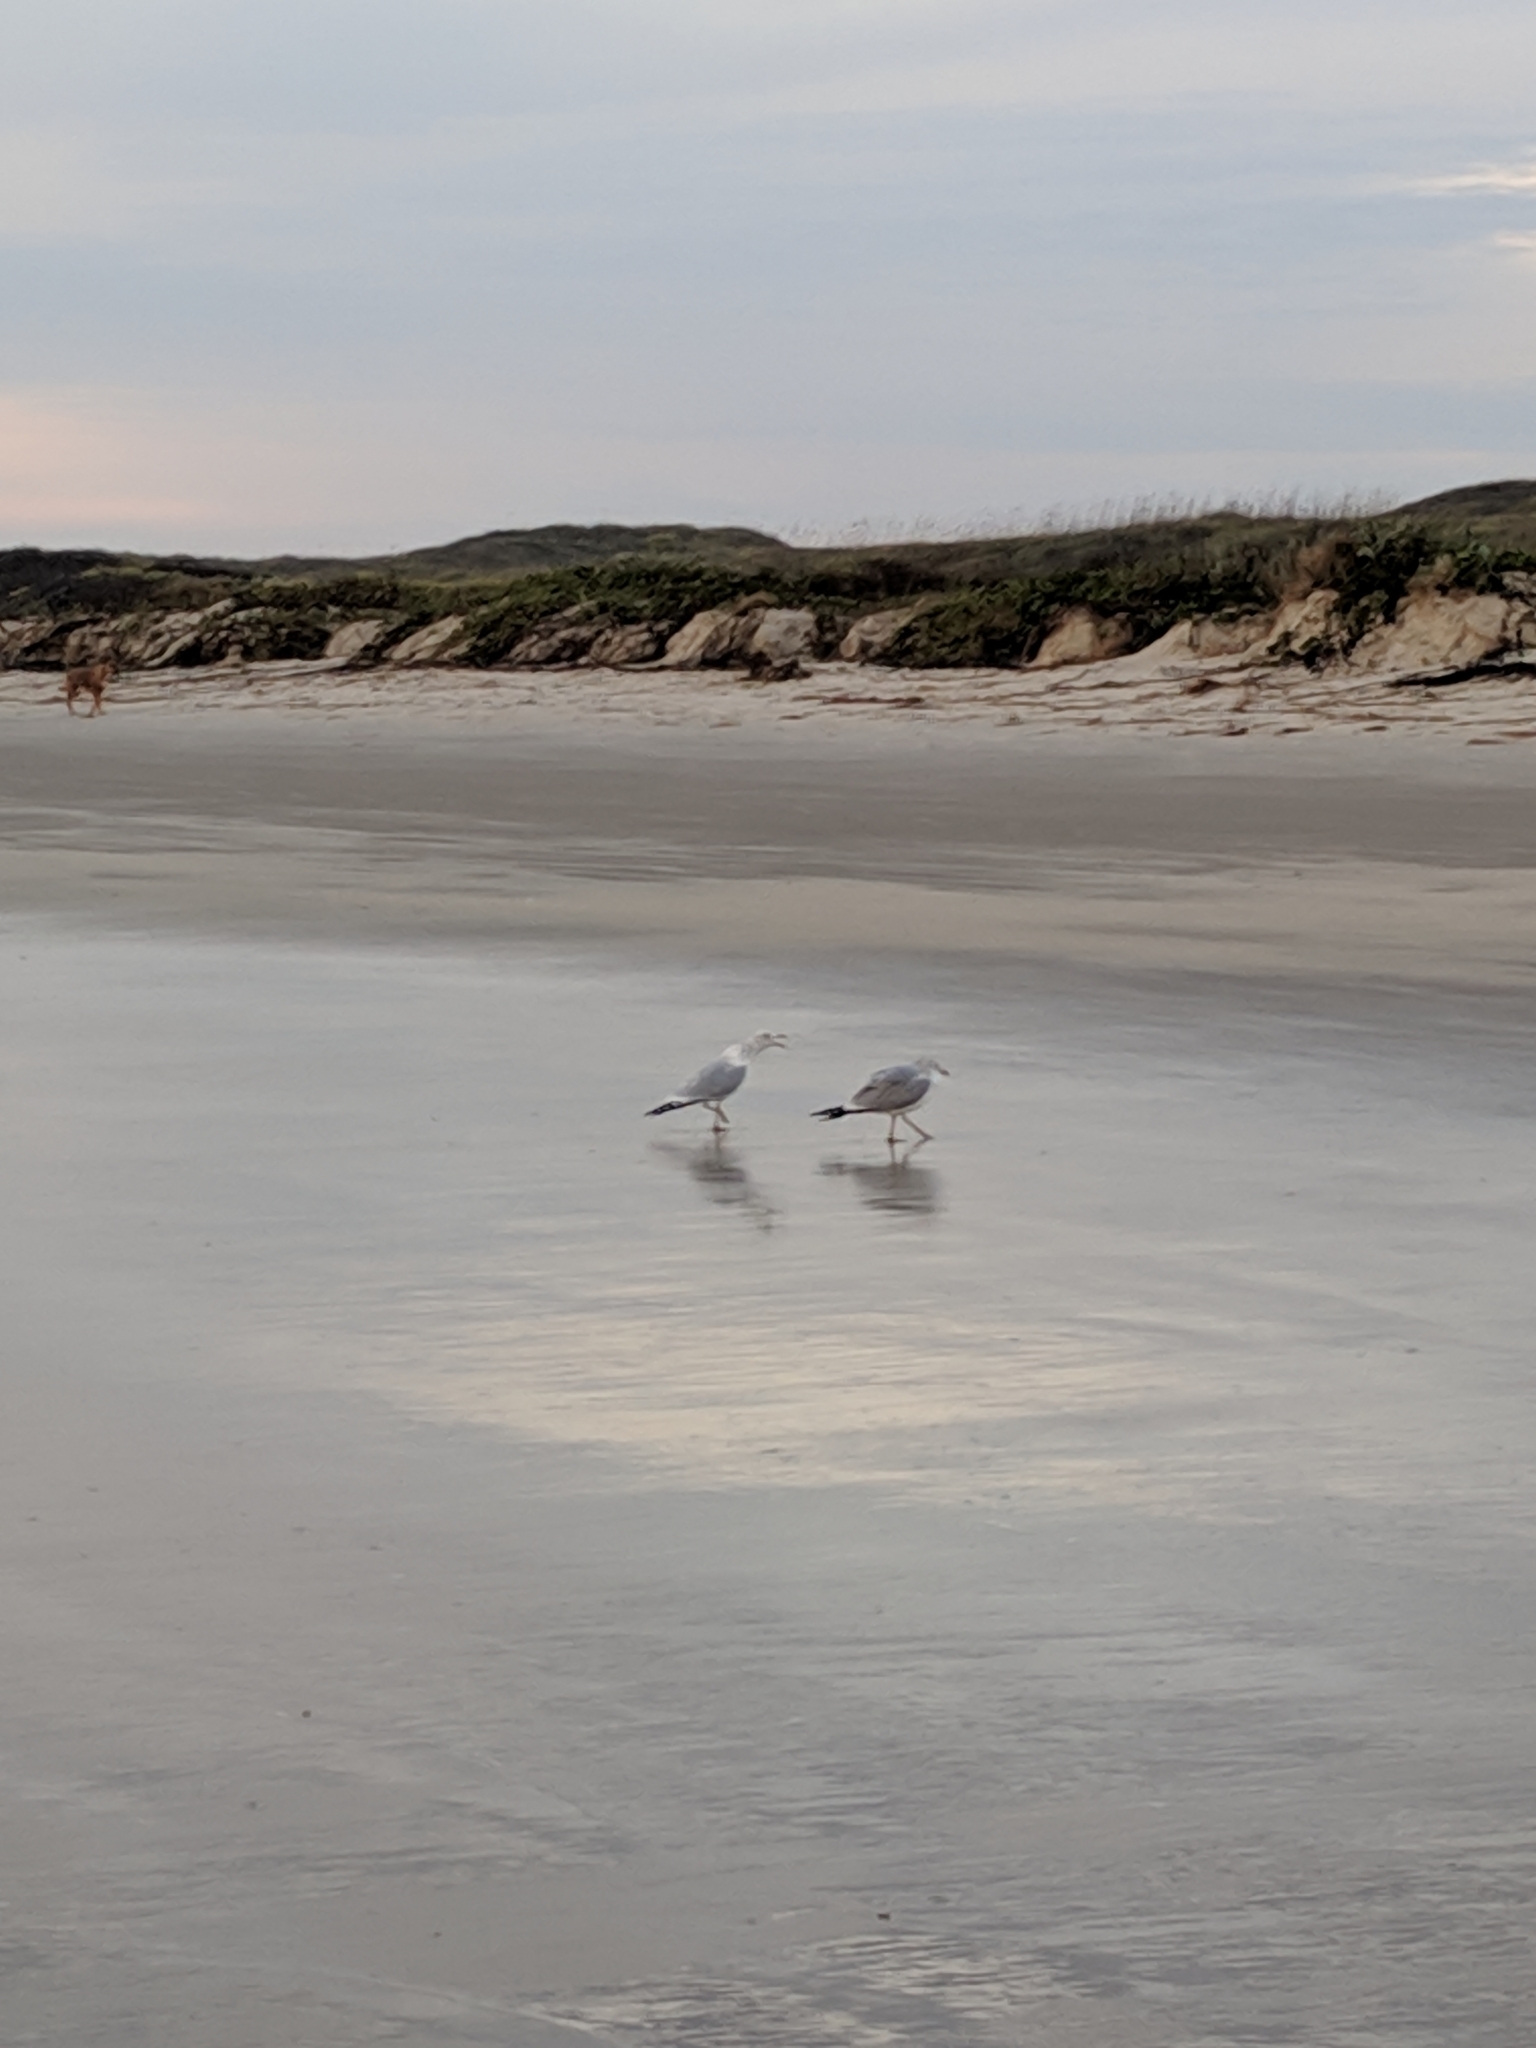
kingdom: Animalia
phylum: Chordata
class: Aves
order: Charadriiformes
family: Laridae
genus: Larus
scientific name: Larus delawarensis
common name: Ring-billed gull
